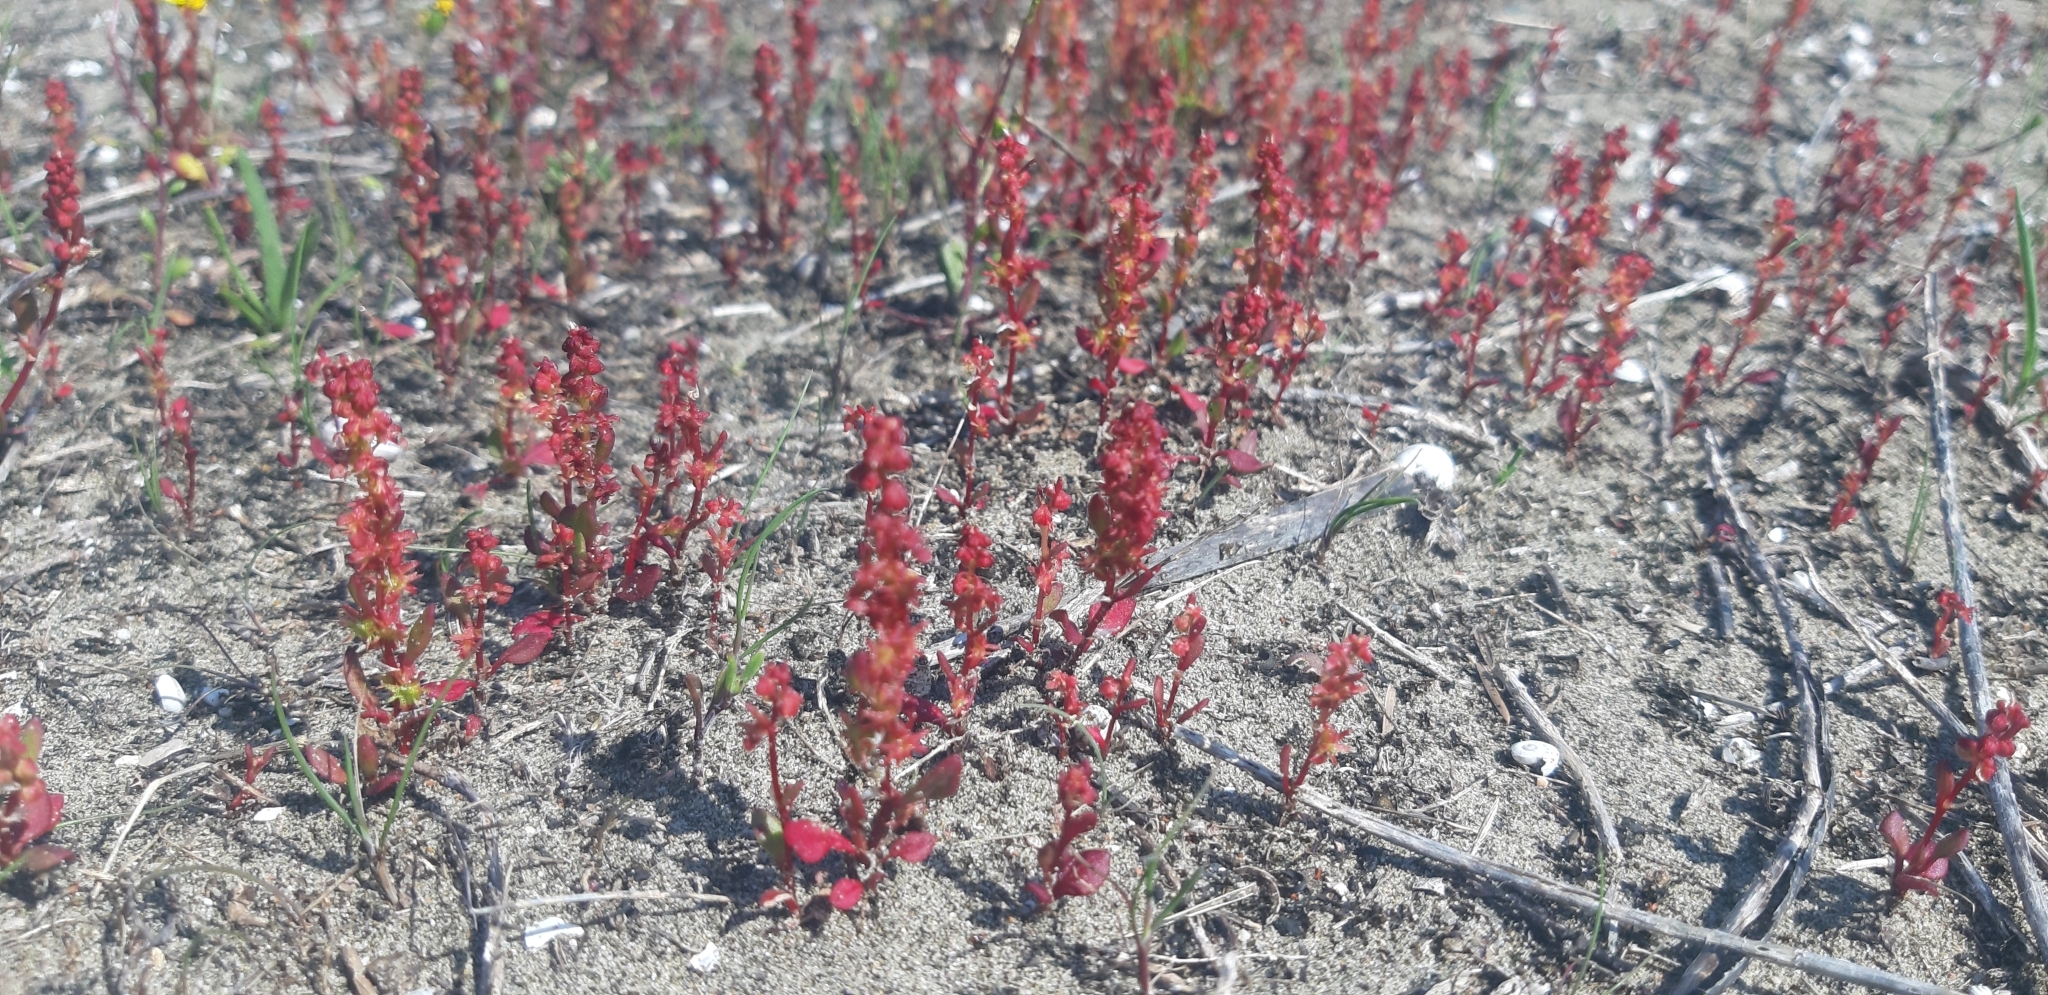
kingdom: Plantae
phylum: Tracheophyta
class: Magnoliopsida
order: Caryophyllales
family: Polygonaceae
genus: Rumex
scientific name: Rumex bucephalophorus
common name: Red dock
